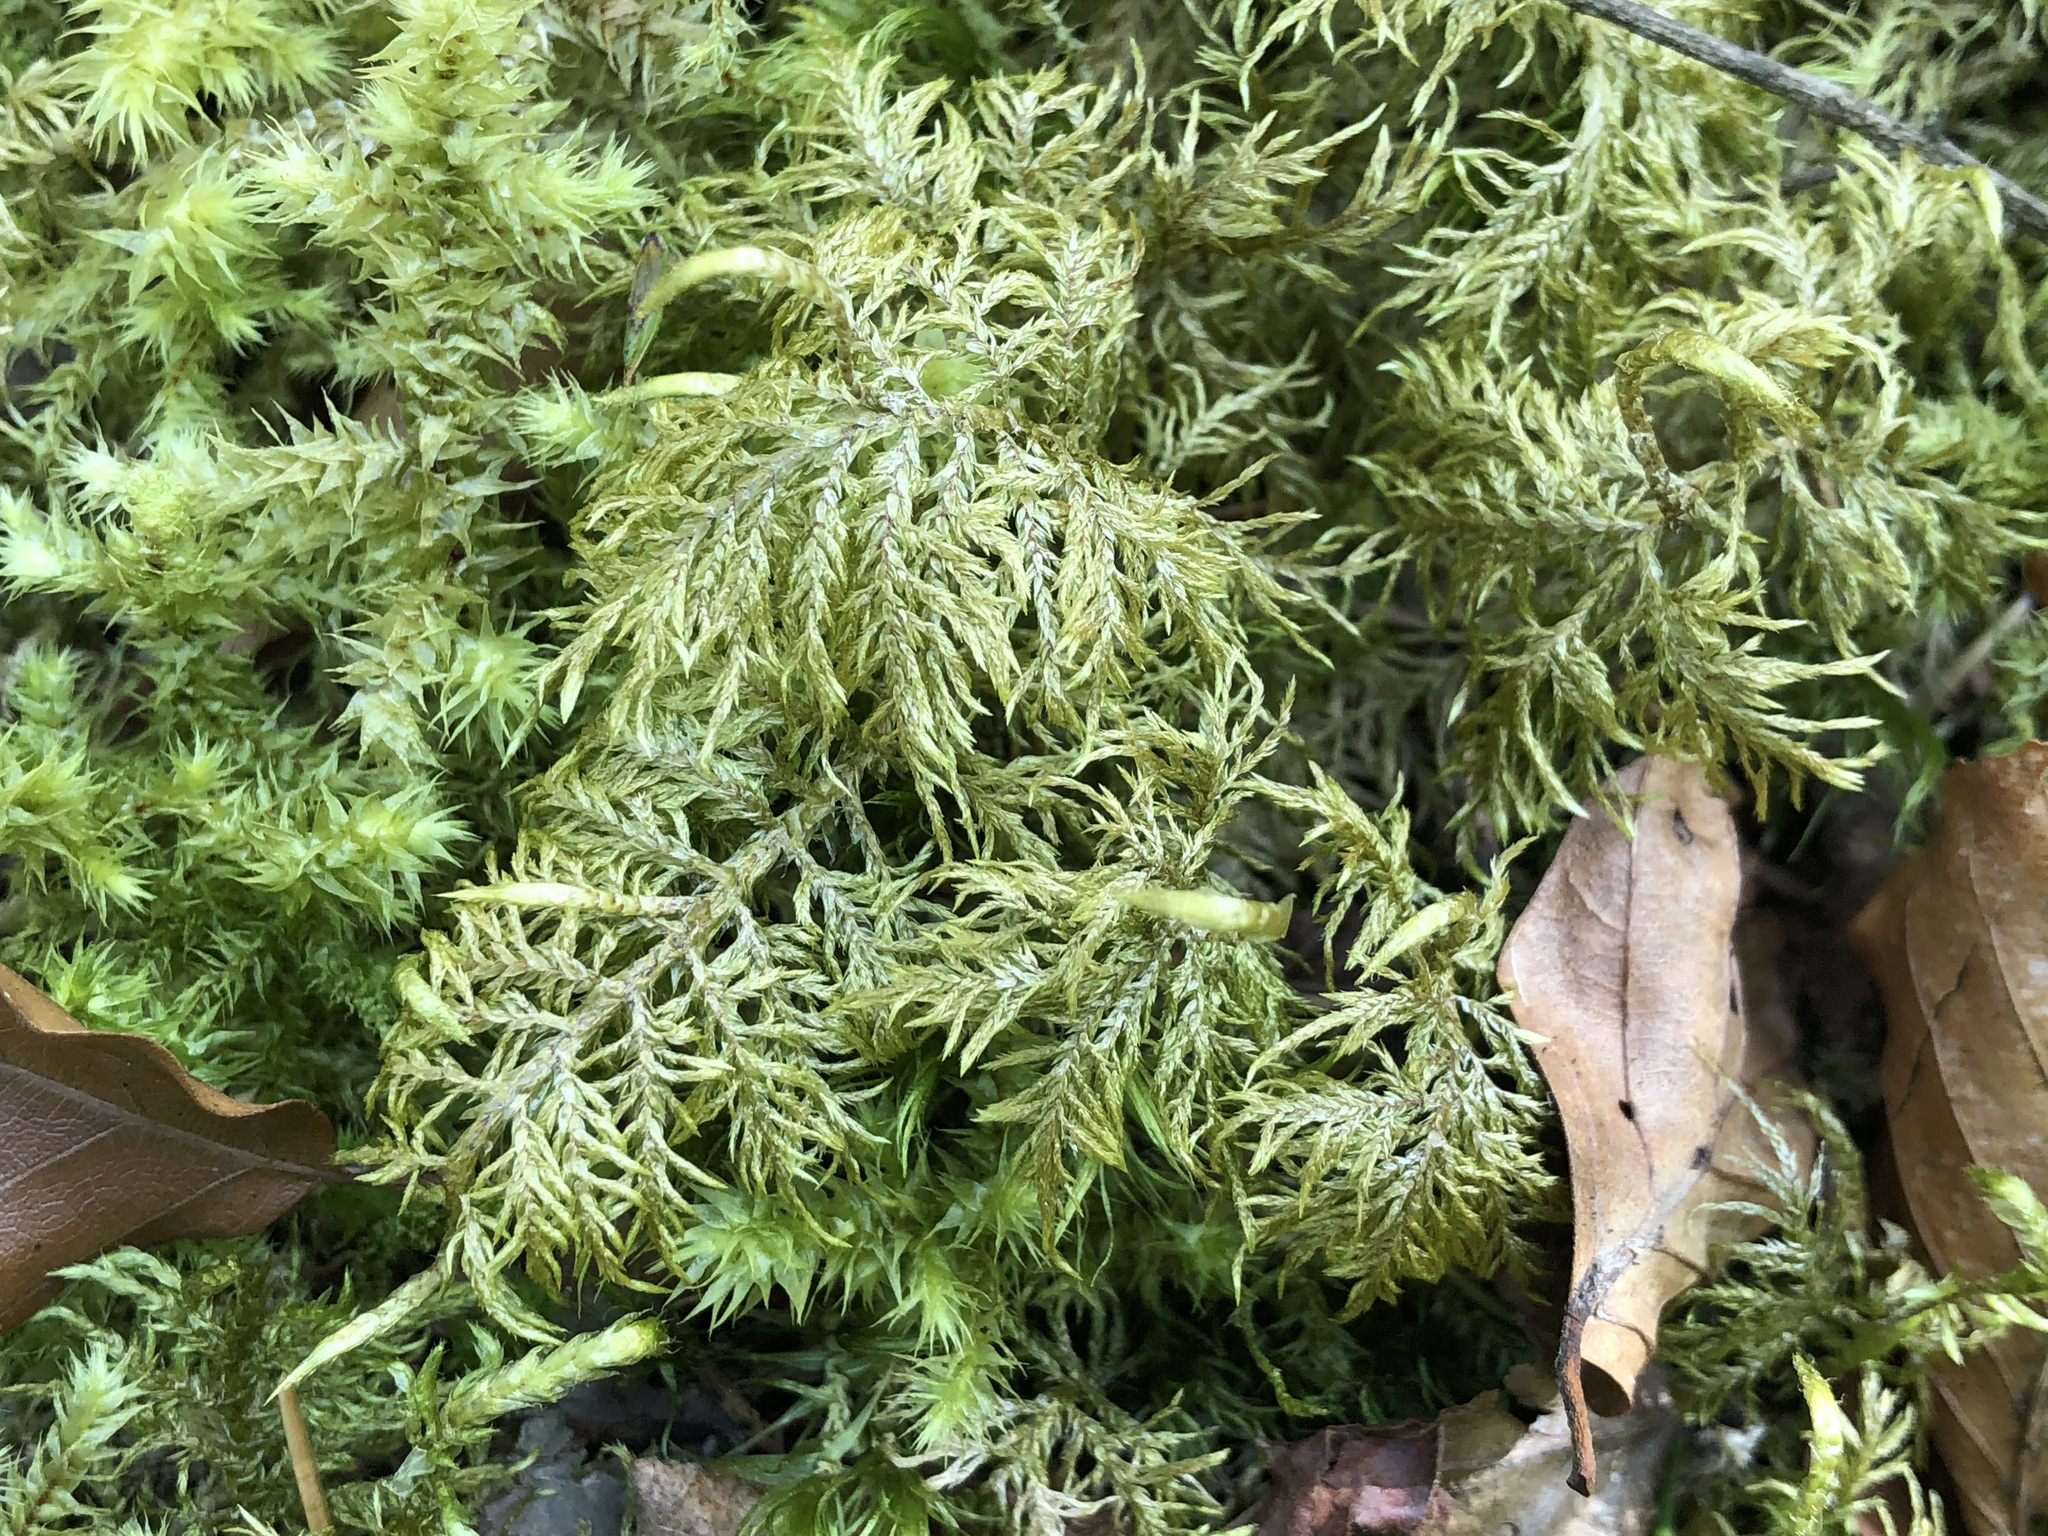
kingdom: Plantae
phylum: Bryophyta
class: Bryopsida
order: Hypnales
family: Hylocomiaceae
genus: Hylocomium
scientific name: Hylocomium splendens
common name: Stairstep moss
